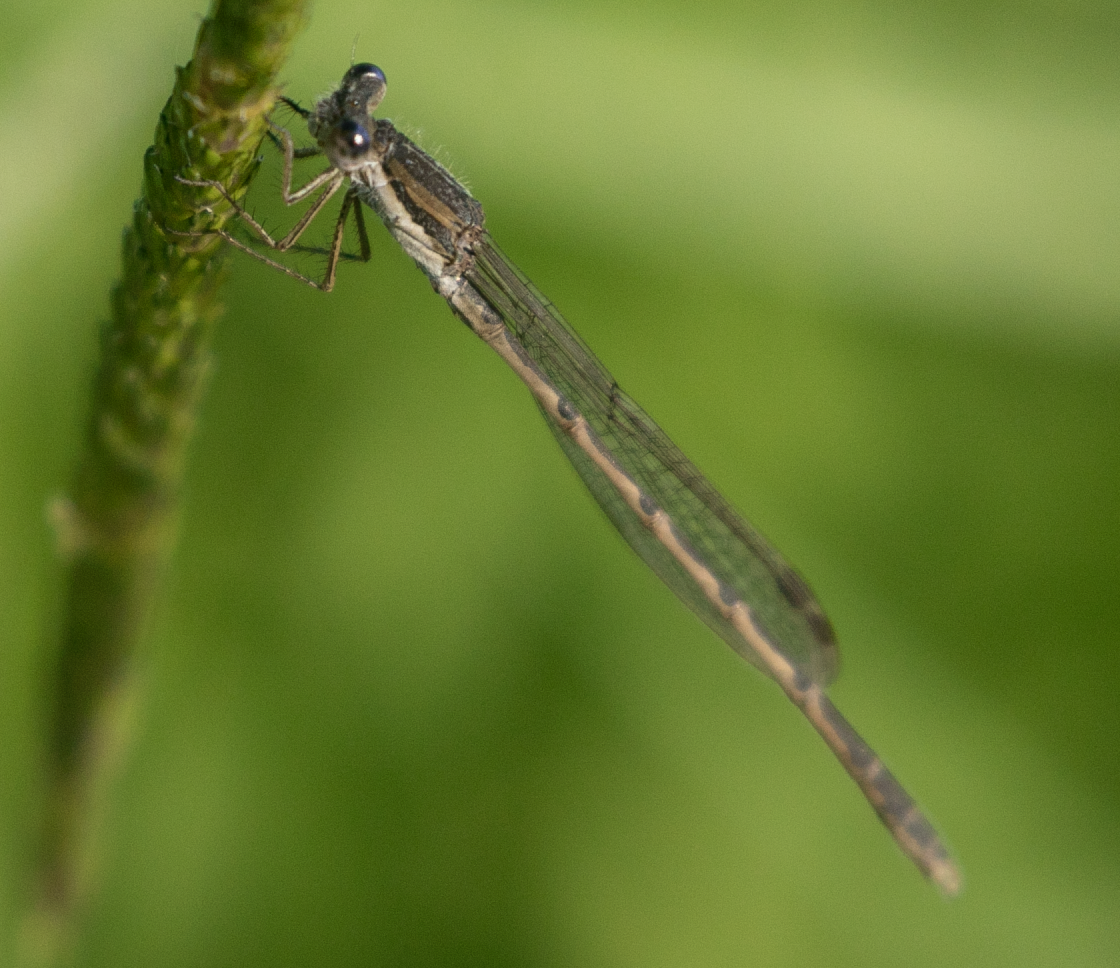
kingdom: Animalia
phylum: Arthropoda
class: Insecta
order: Odonata
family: Lestidae
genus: Sympecma
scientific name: Sympecma fusca
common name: Common winter damsel
